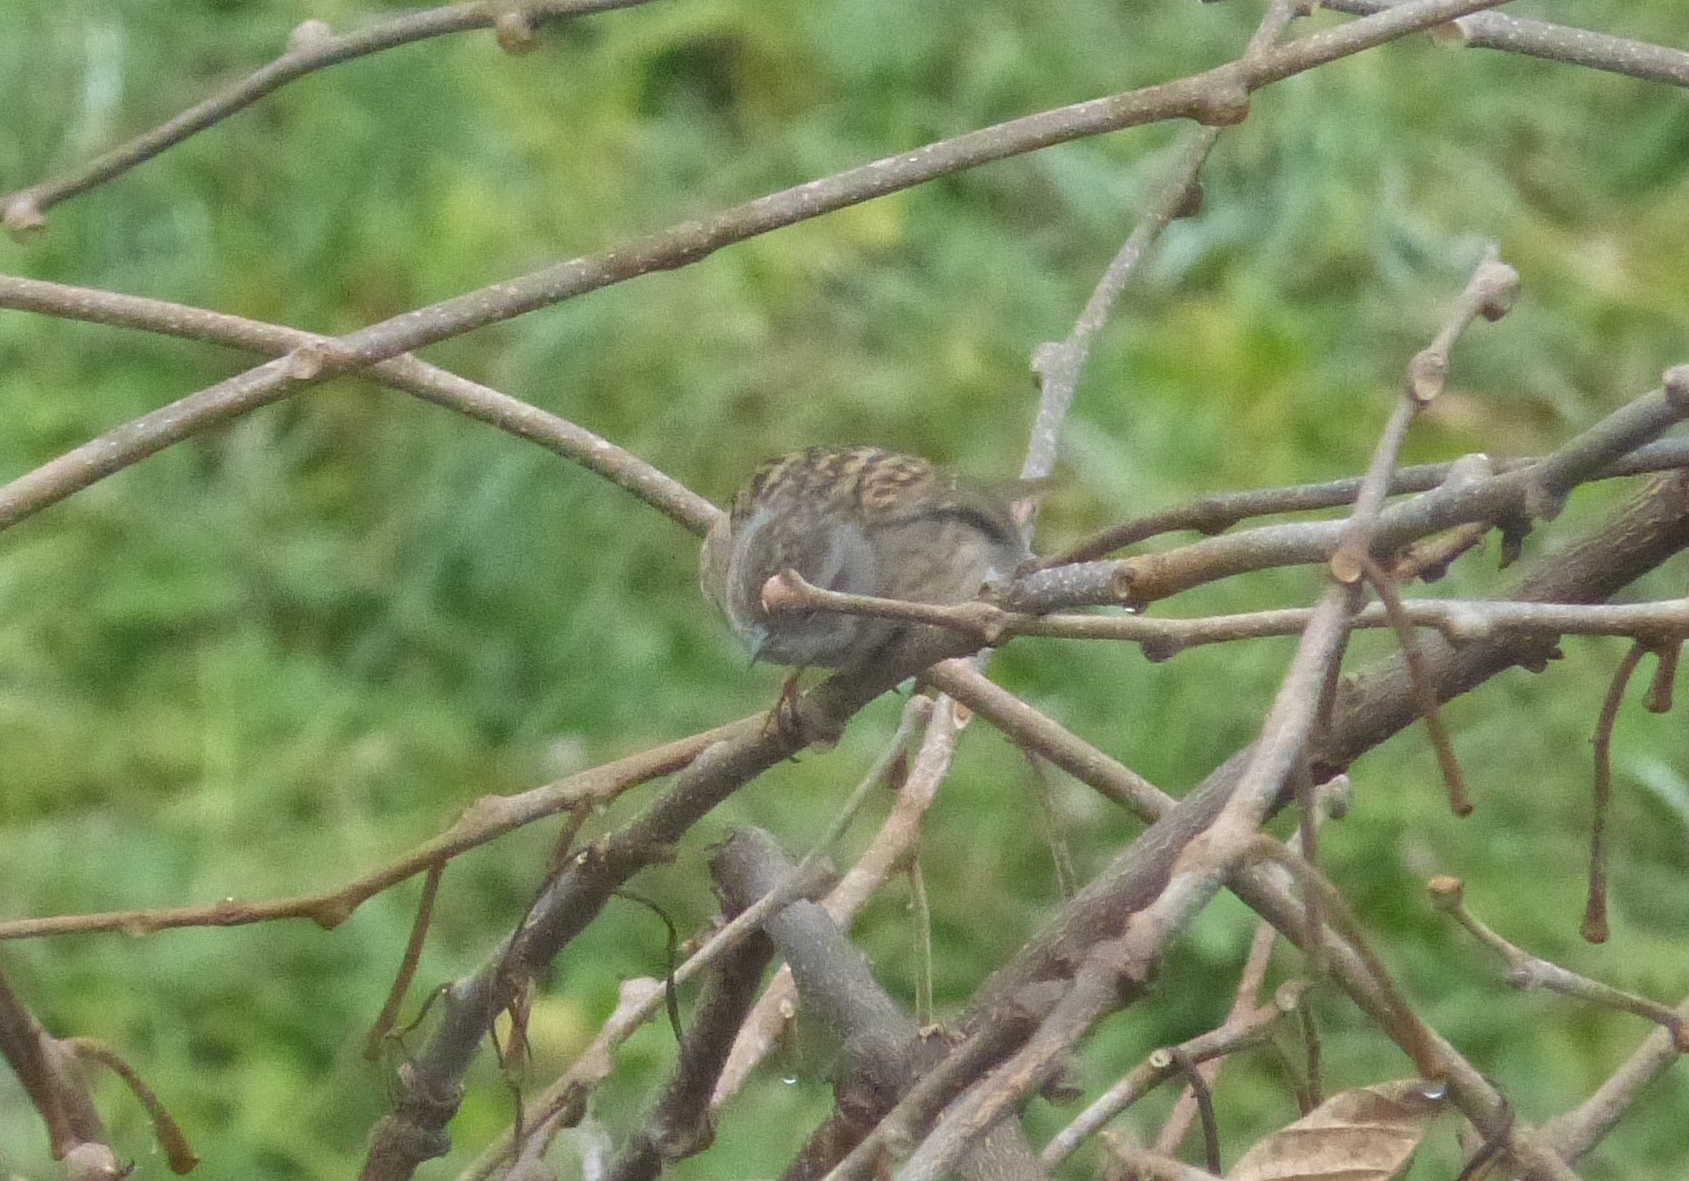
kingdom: Animalia
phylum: Chordata
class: Aves
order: Passeriformes
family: Prunellidae
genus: Prunella
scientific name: Prunella modularis
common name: Dunnock
